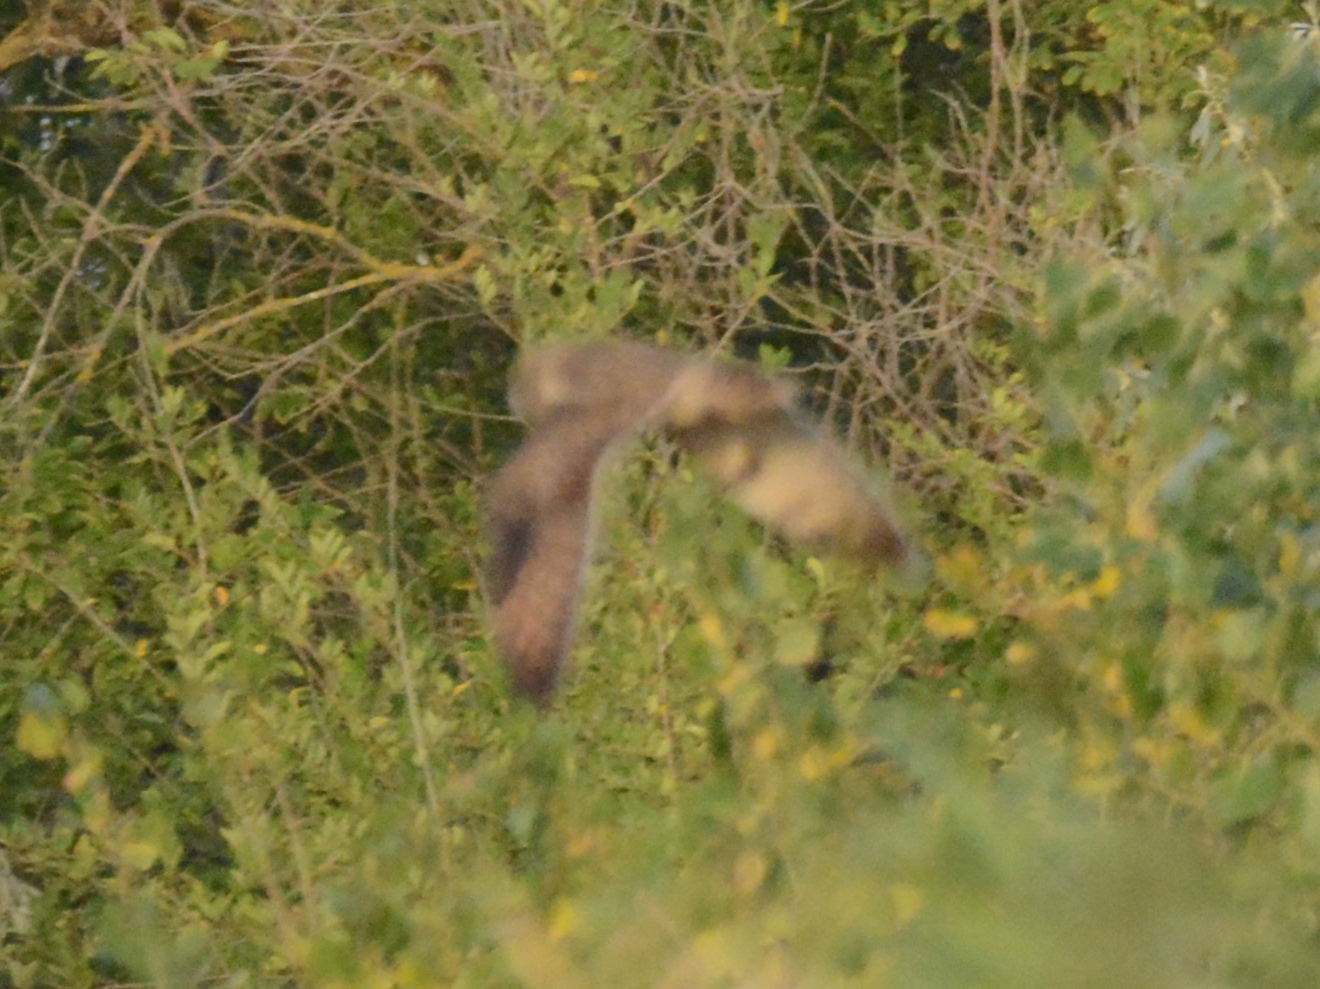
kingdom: Animalia
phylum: Chordata
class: Aves
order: Strigiformes
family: Strigidae
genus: Asio
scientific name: Asio flammeus
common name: Short-eared owl
